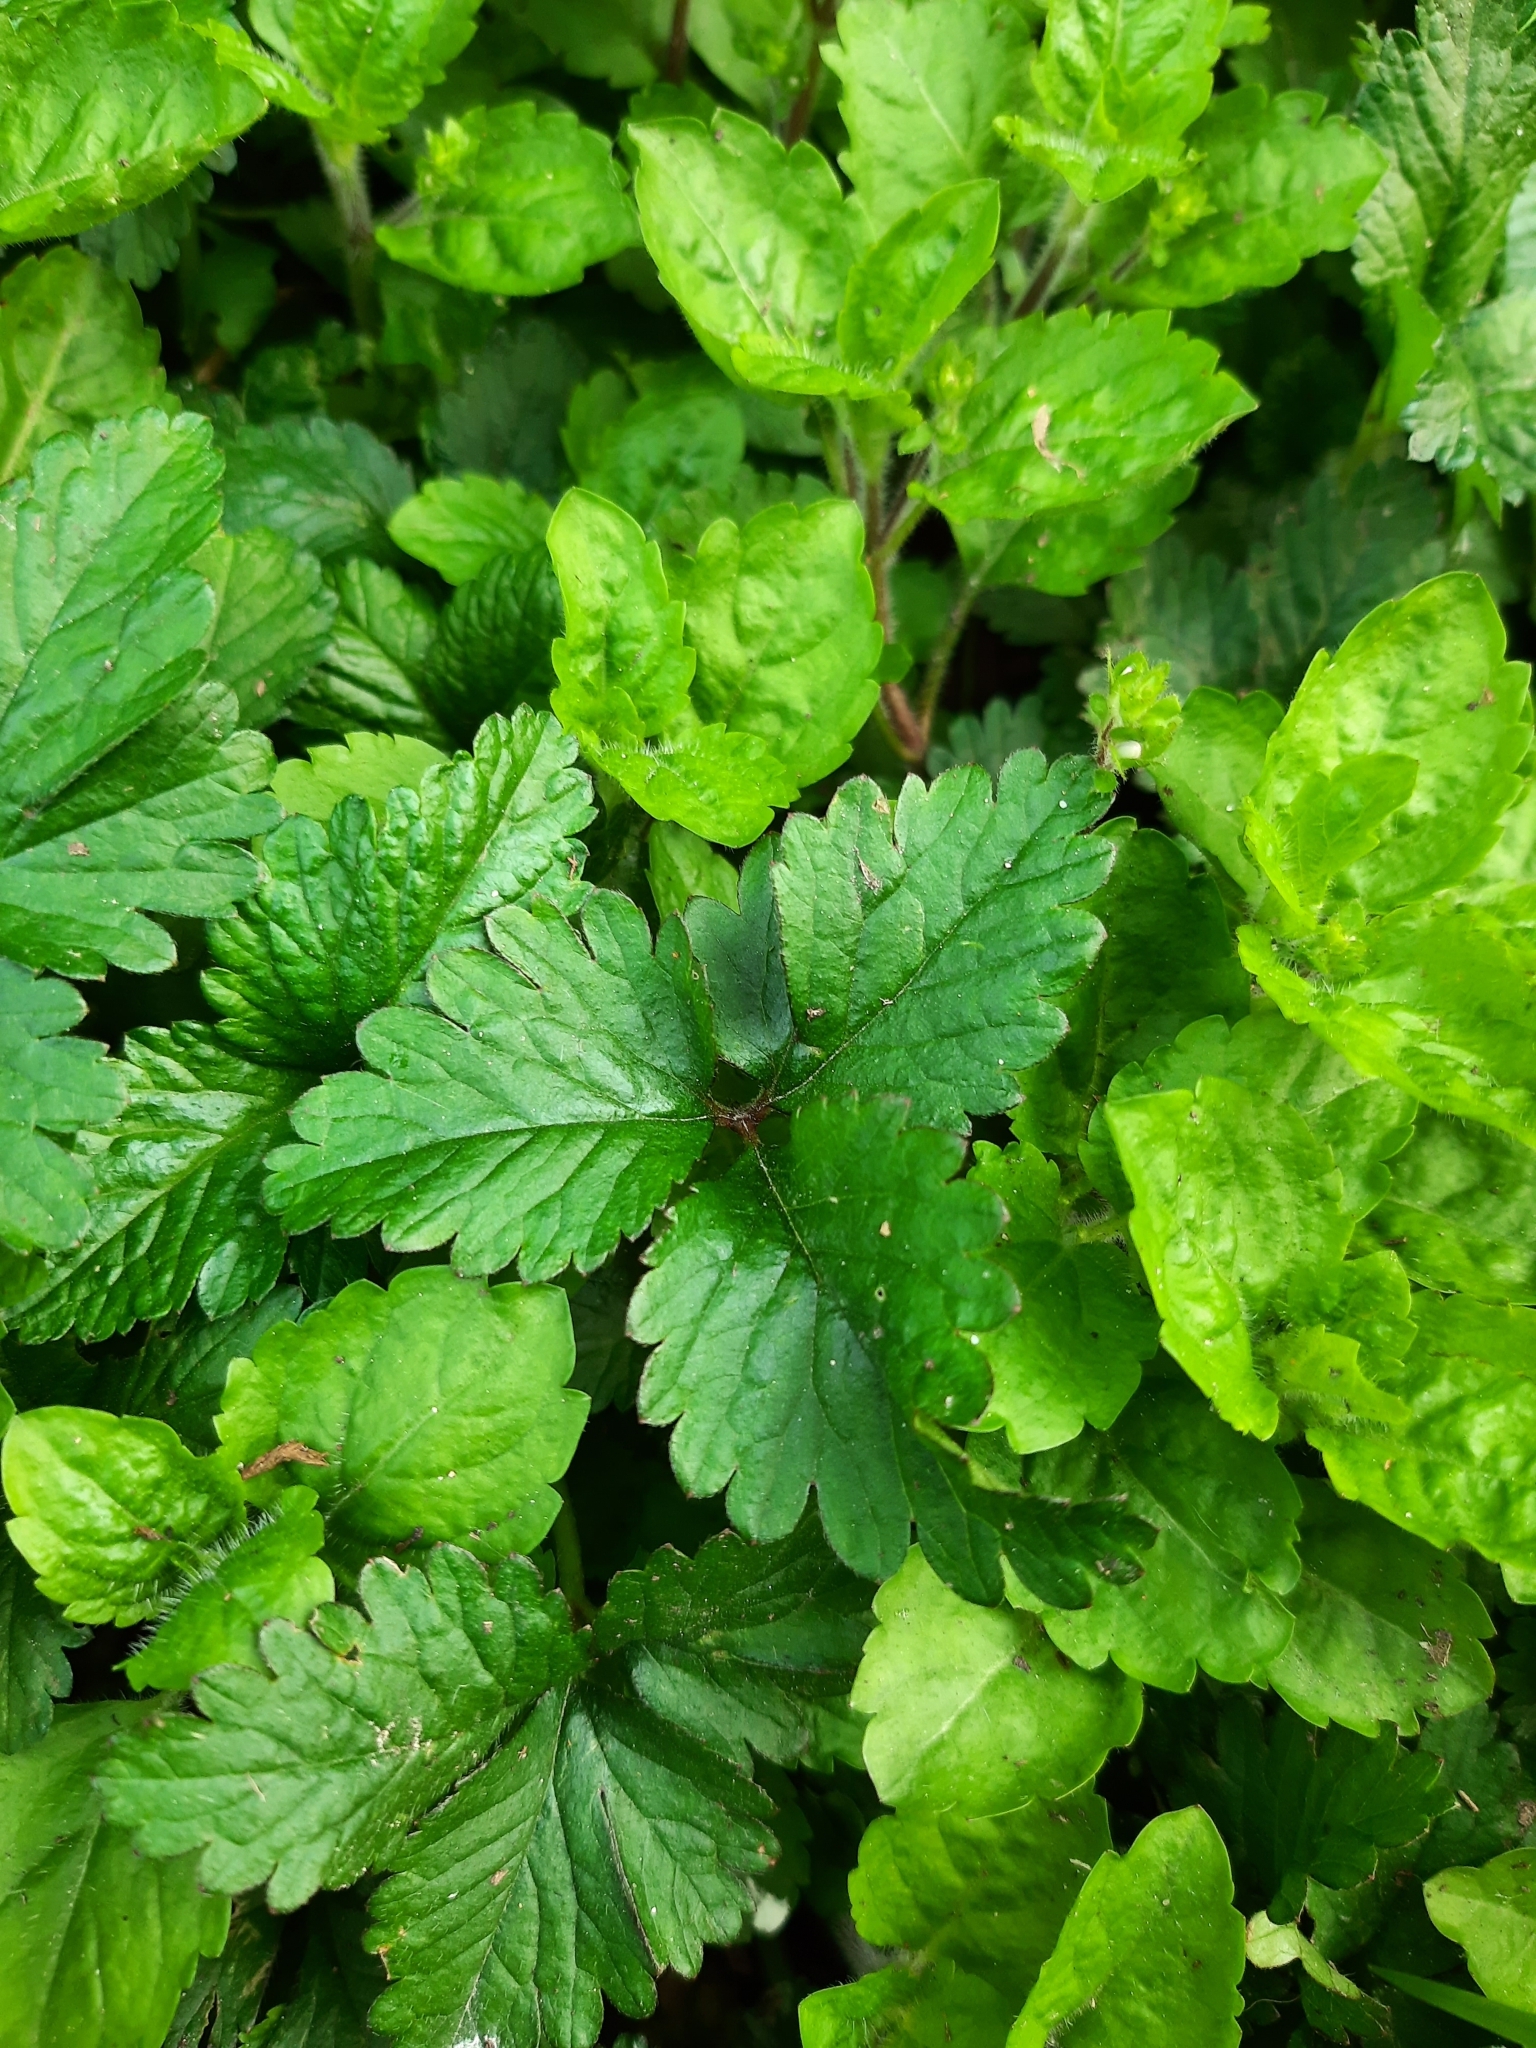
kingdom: Plantae
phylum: Tracheophyta
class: Magnoliopsida
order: Rosales
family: Rosaceae
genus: Potentilla
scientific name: Potentilla indica
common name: Yellow-flowered strawberry
